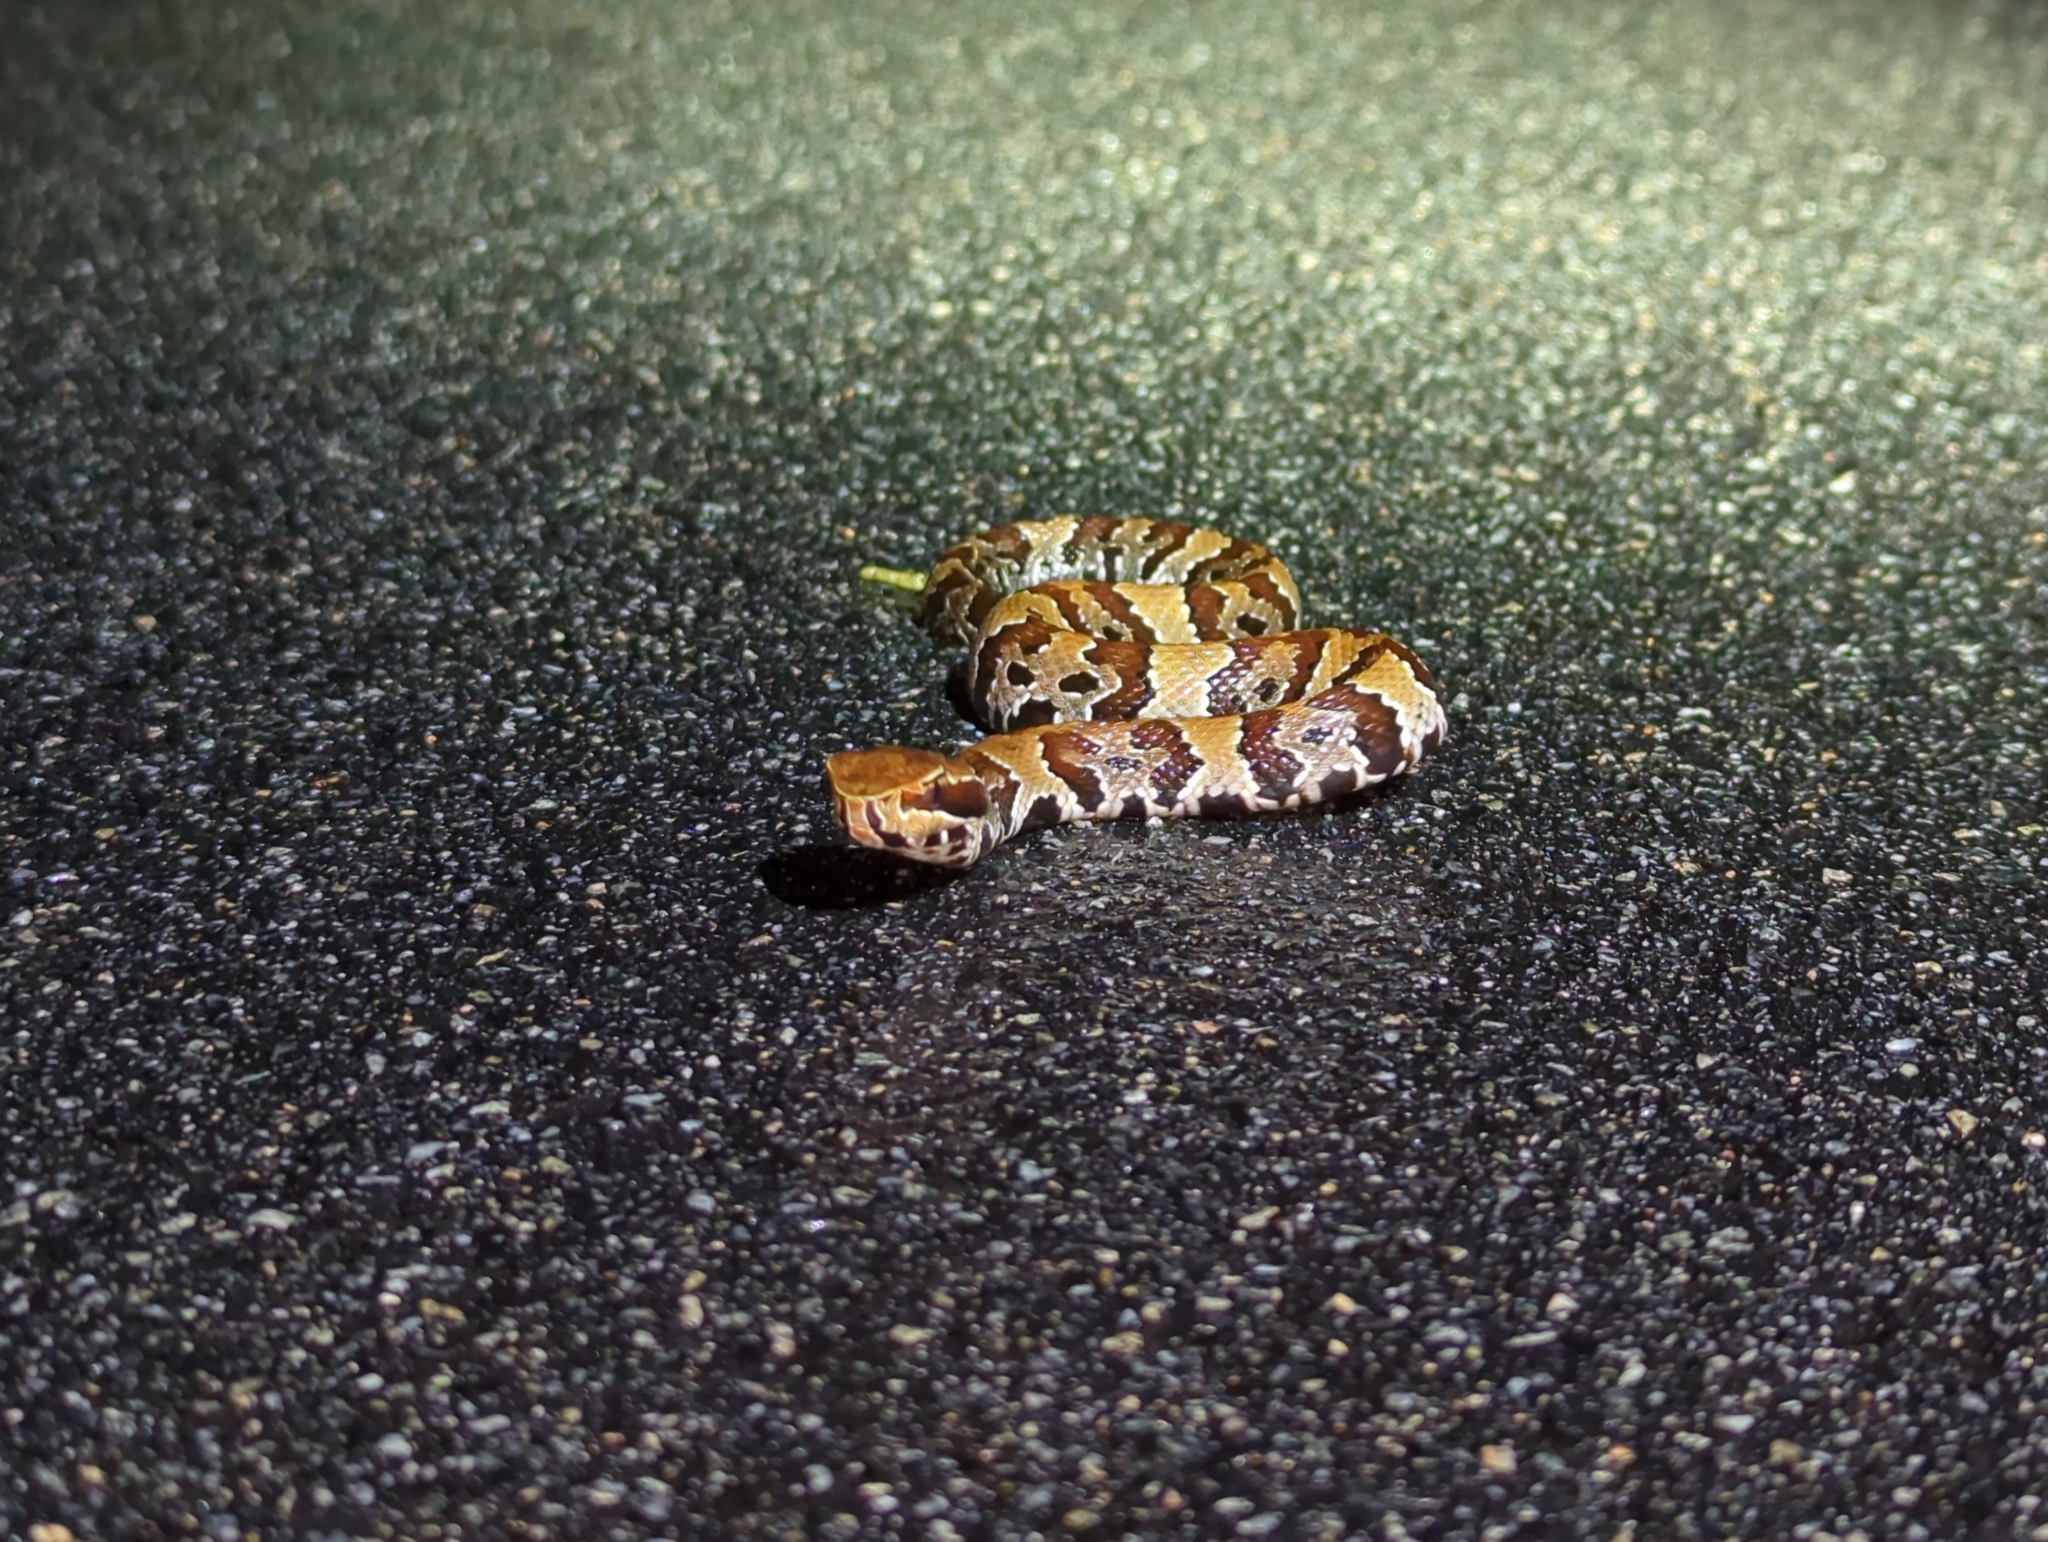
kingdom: Animalia
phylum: Chordata
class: Squamata
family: Viperidae
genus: Agkistrodon
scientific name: Agkistrodon conanti
